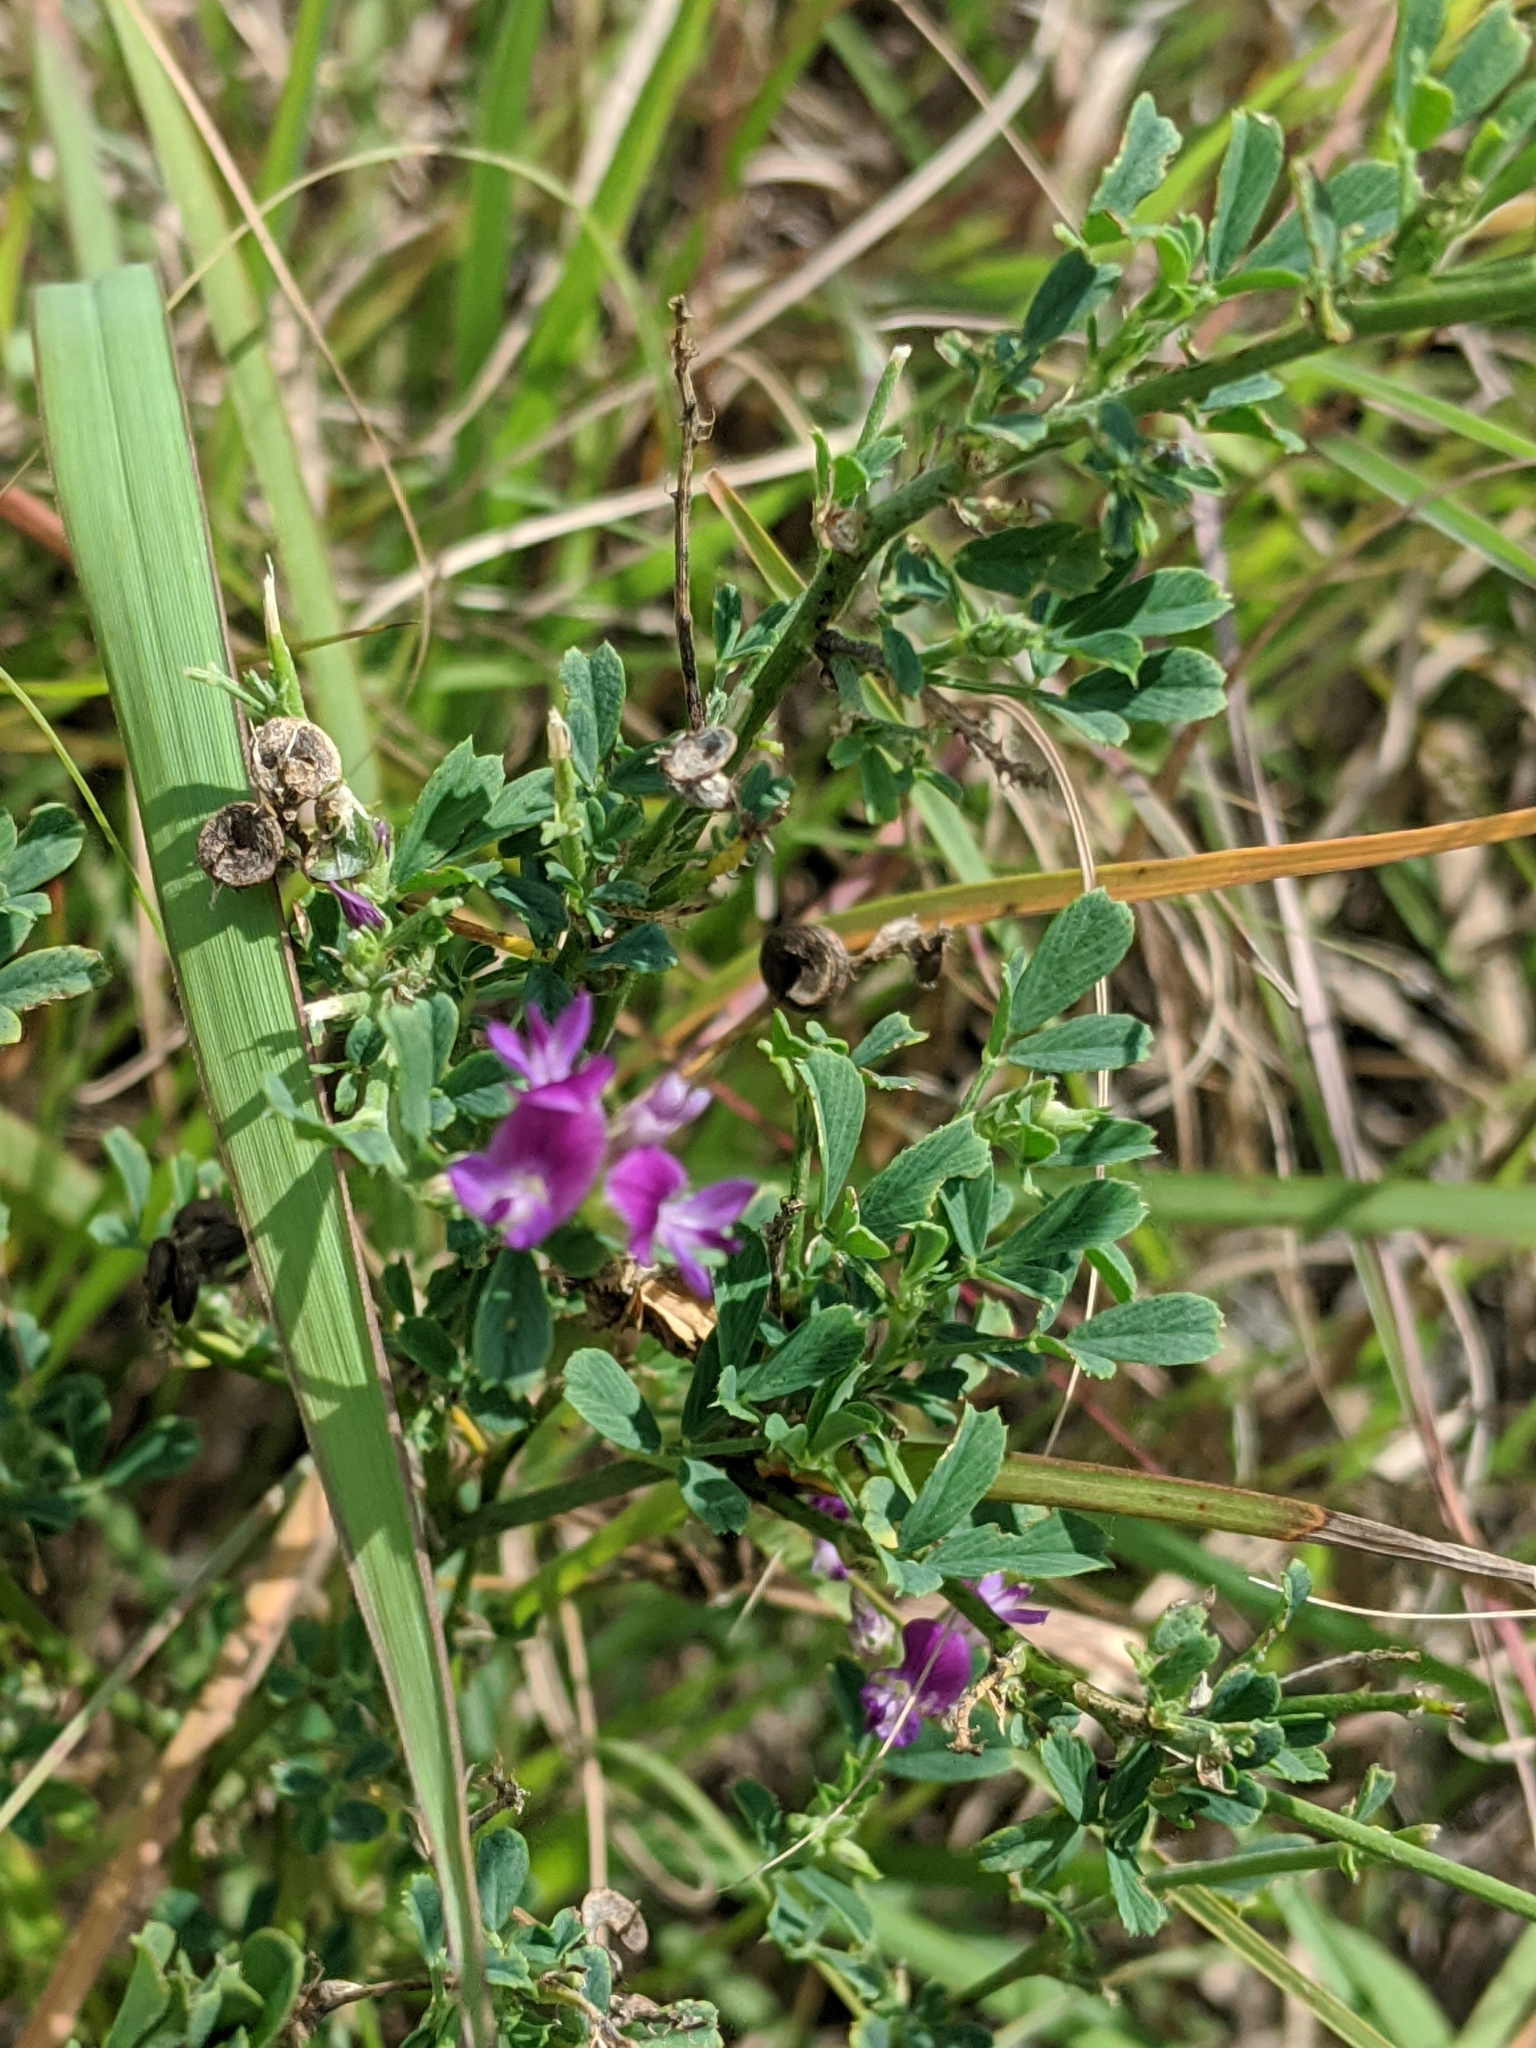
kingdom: Plantae
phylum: Tracheophyta
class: Magnoliopsida
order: Fabales
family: Fabaceae
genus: Medicago
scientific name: Medicago sativa
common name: Alfalfa
